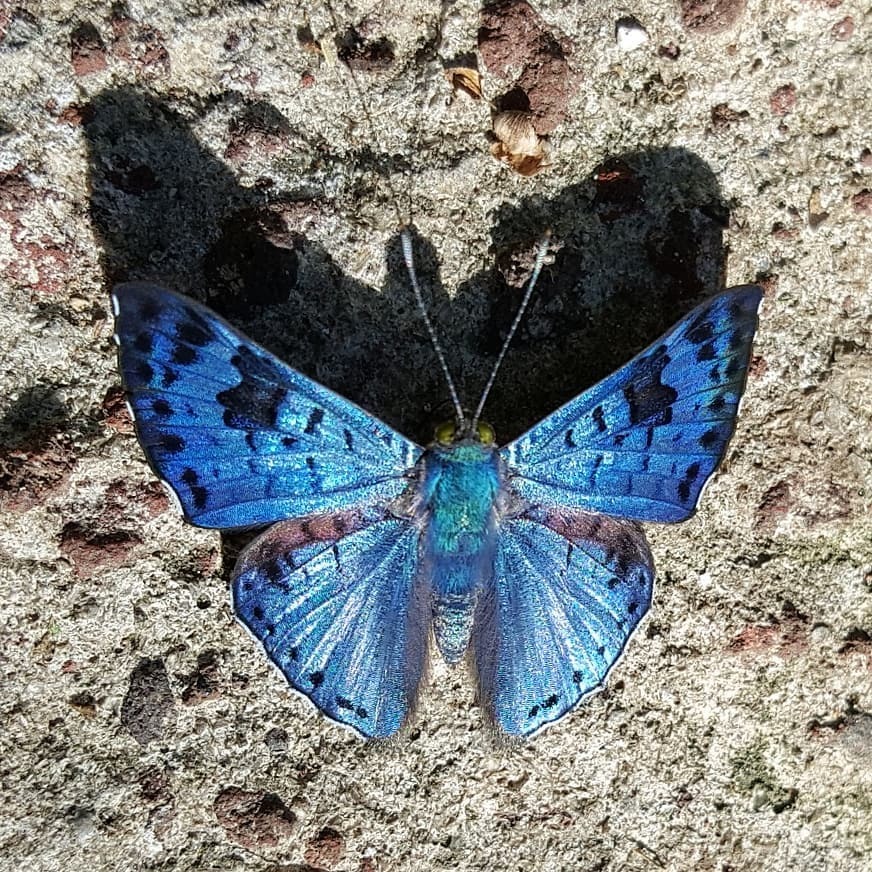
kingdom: Animalia
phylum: Arthropoda
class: Insecta
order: Lepidoptera
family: Riodinidae
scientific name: Riodinidae
